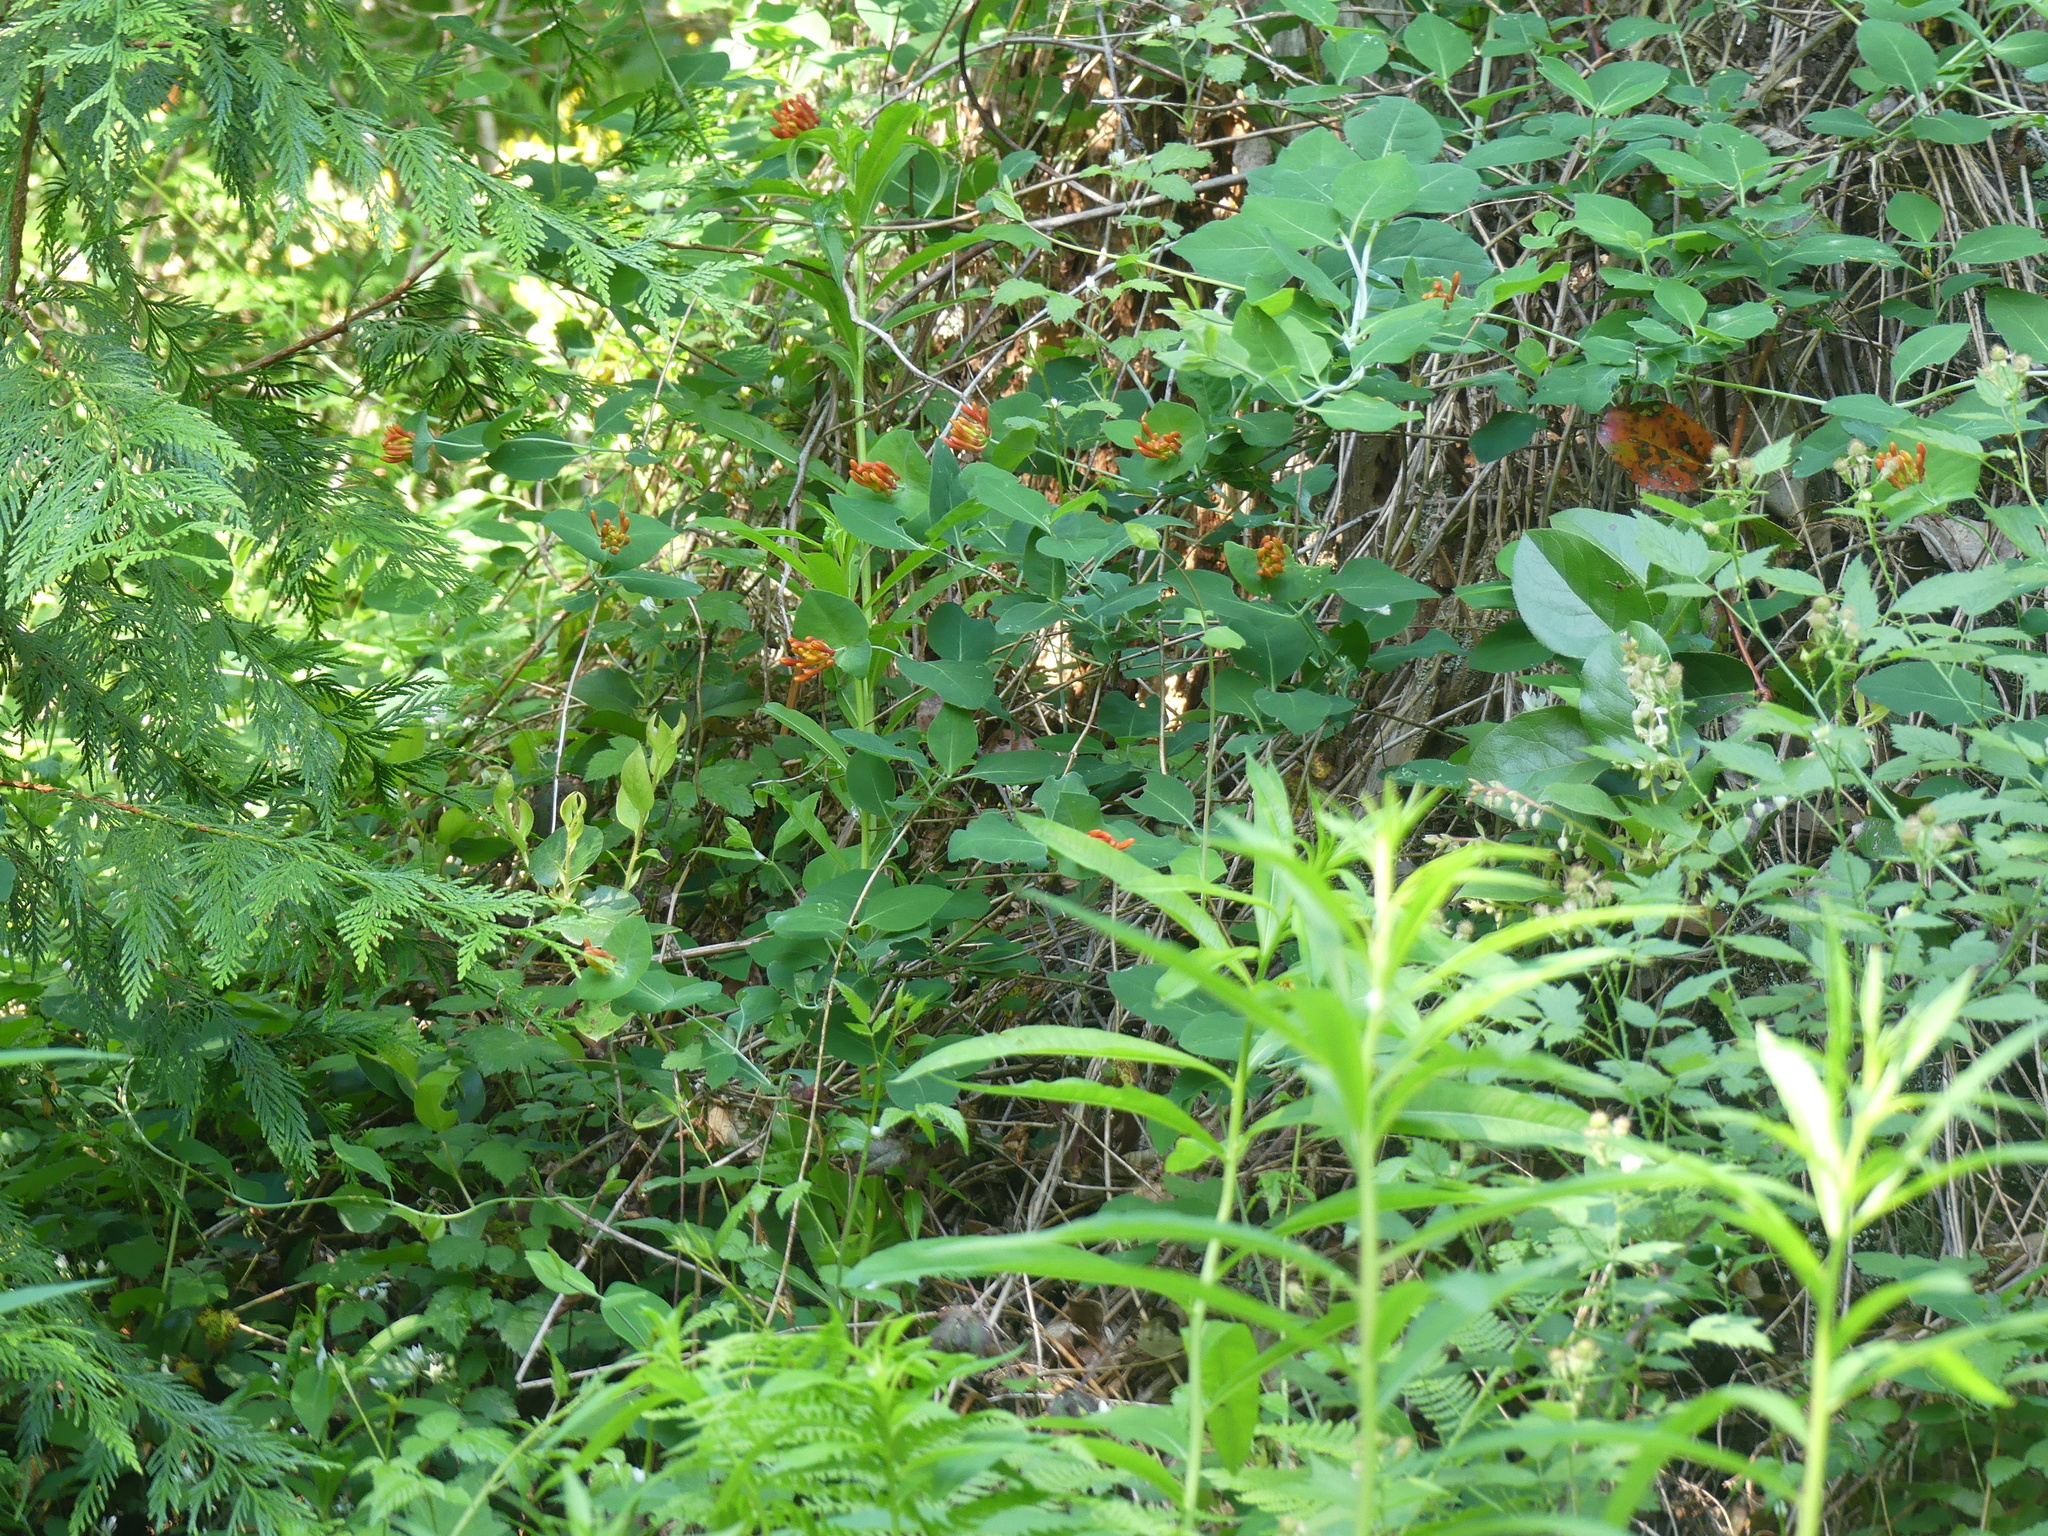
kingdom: Plantae
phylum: Tracheophyta
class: Magnoliopsida
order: Dipsacales
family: Caprifoliaceae
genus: Lonicera
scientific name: Lonicera ciliosa
